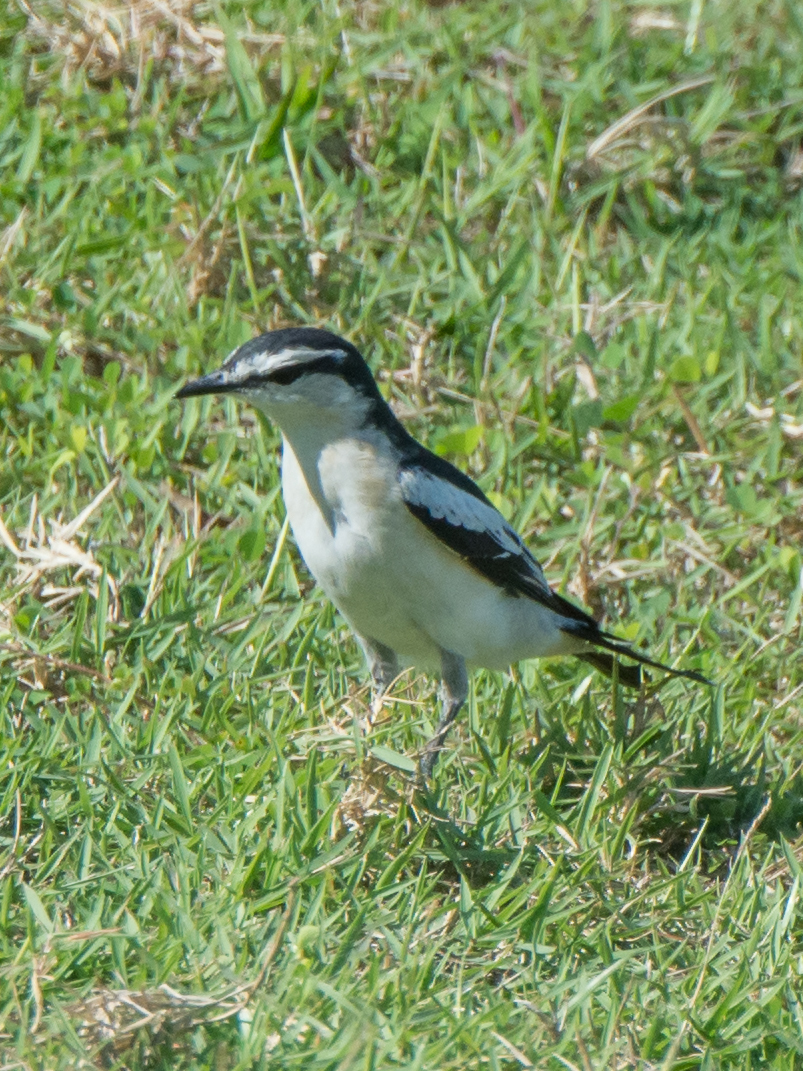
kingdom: Animalia
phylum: Chordata
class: Aves
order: Passeriformes
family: Campephagidae
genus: Lalage
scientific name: Lalage sueurii
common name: White-shouldered triller
